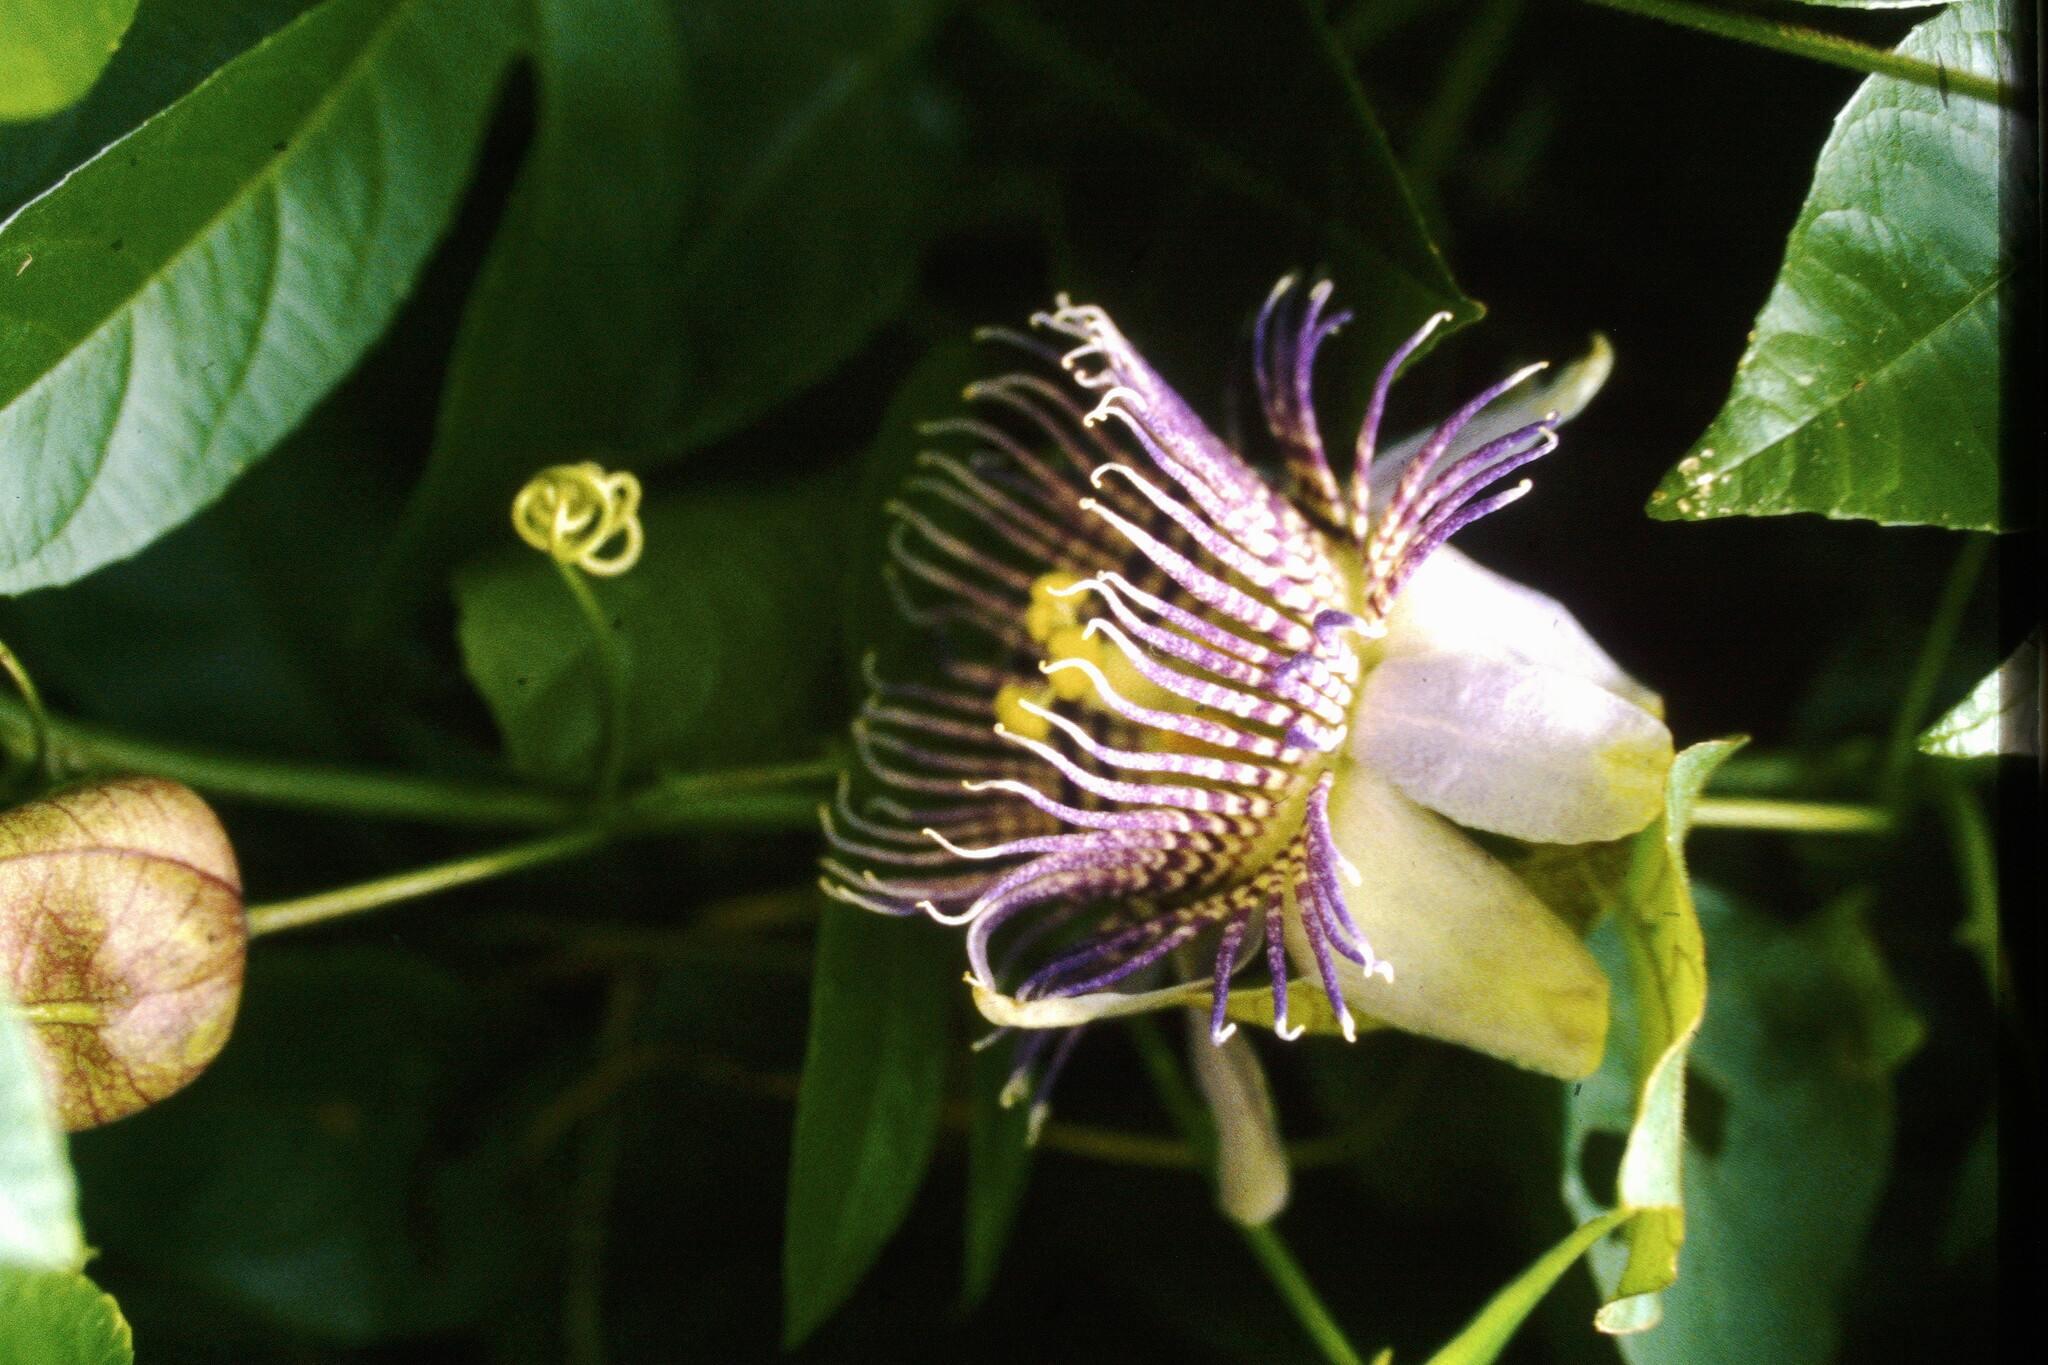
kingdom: Plantae
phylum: Tracheophyta
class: Magnoliopsida
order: Malpighiales
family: Passifloraceae
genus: Passiflora
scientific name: Passiflora serratodigitata
